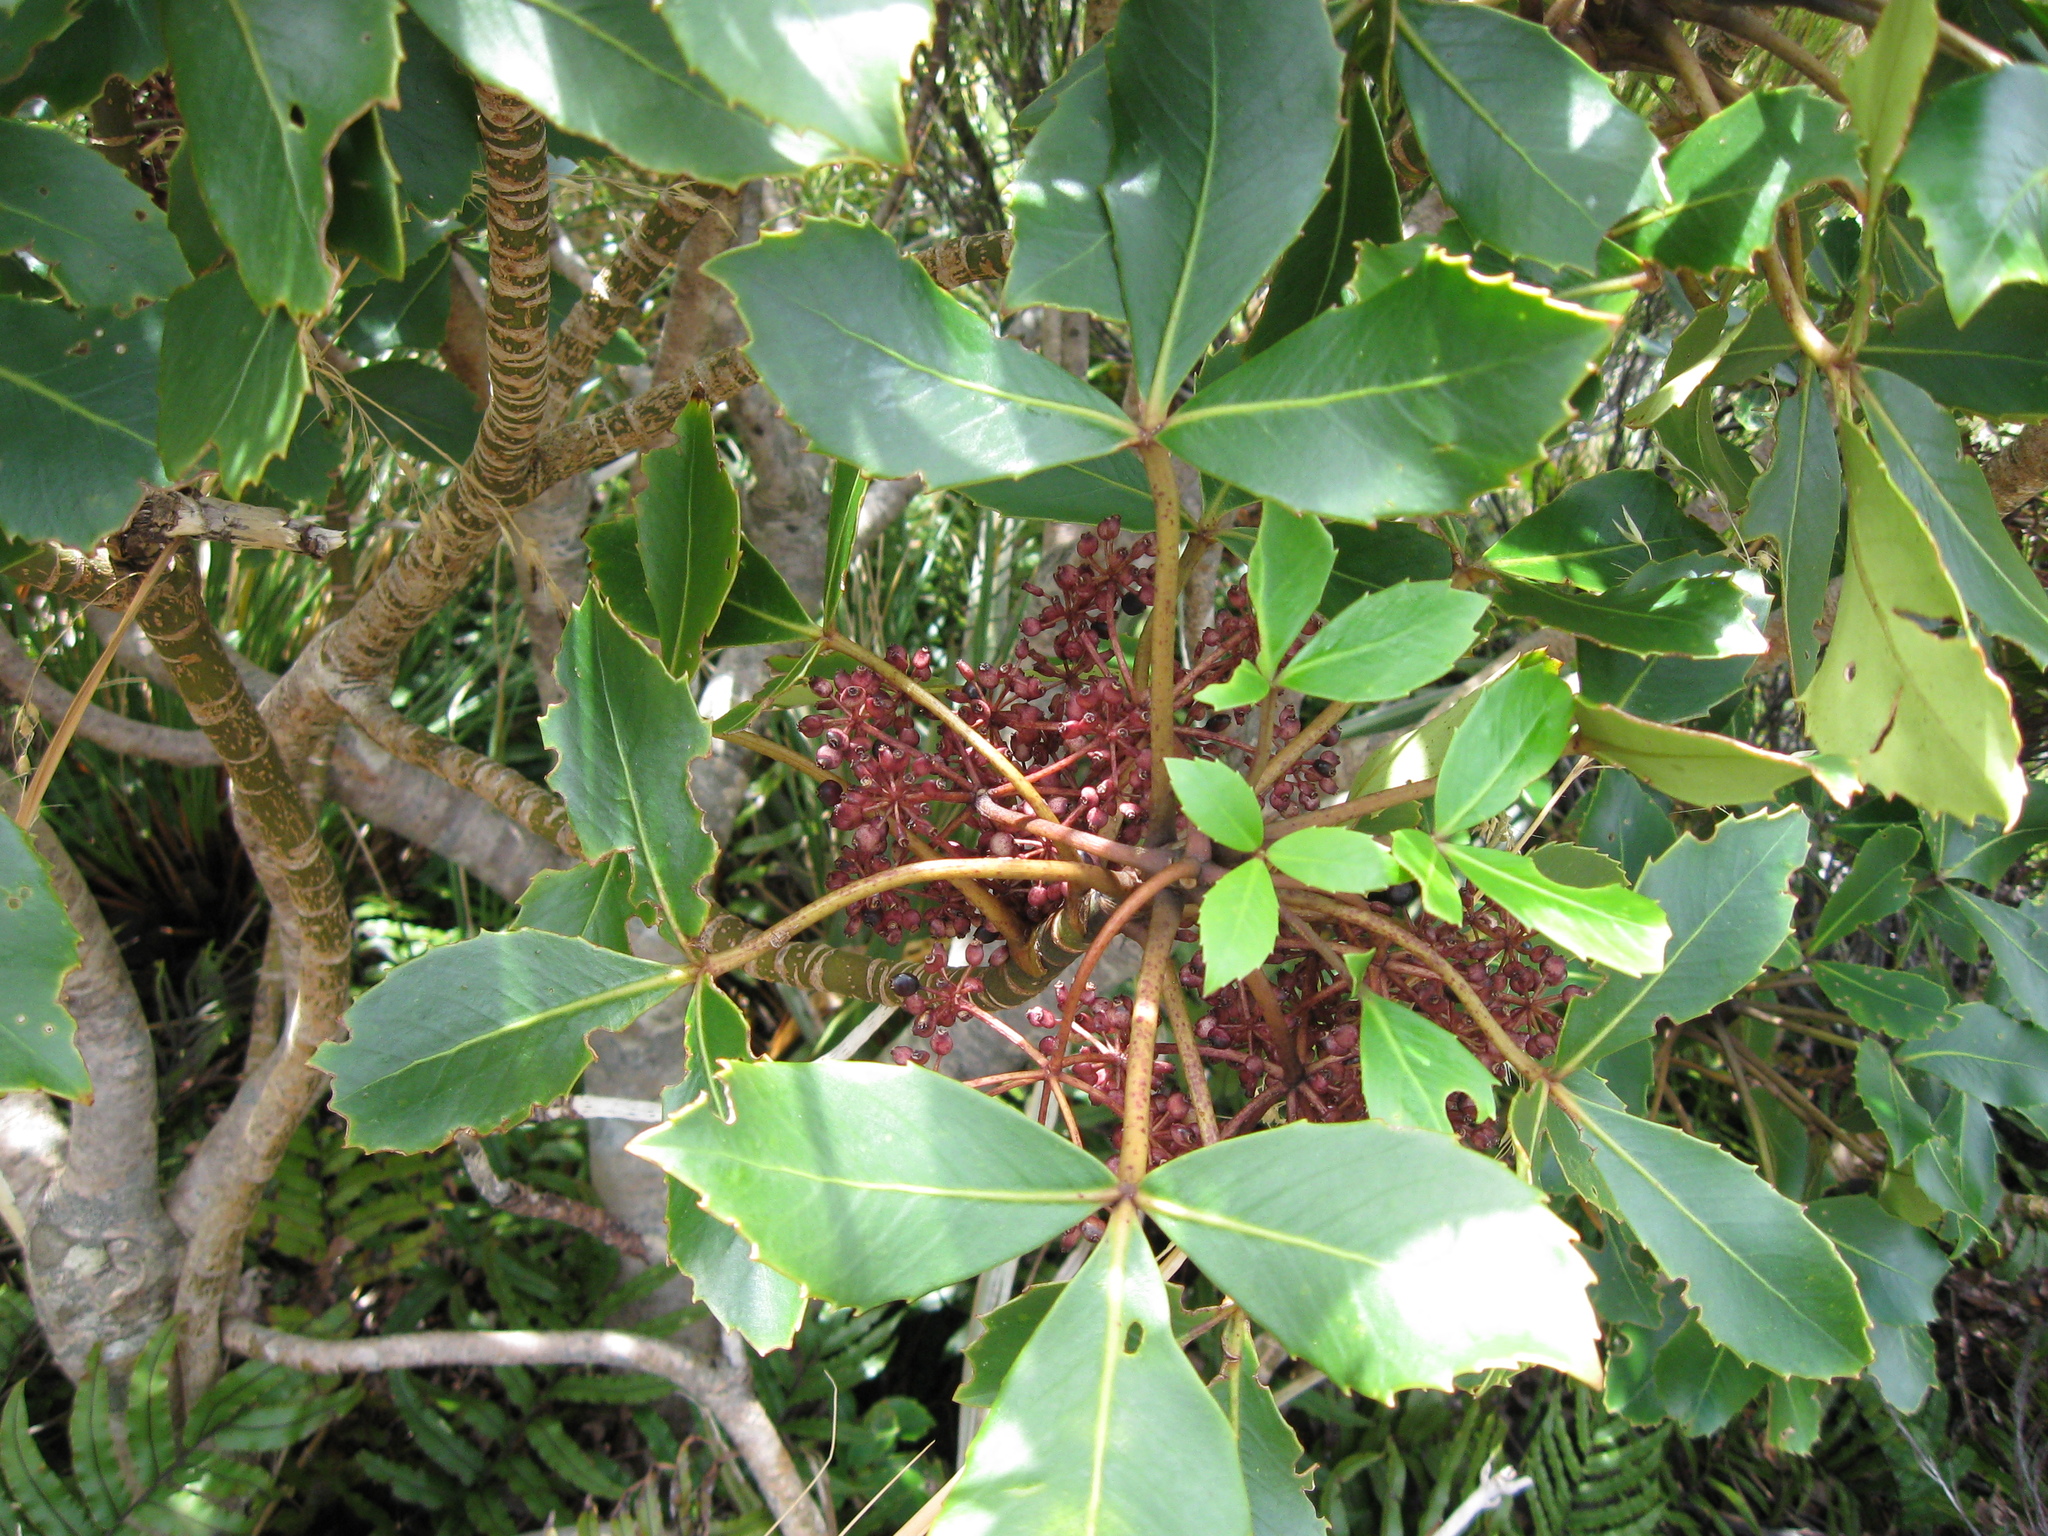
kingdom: Plantae
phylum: Tracheophyta
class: Magnoliopsida
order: Apiales
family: Araliaceae
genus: Neopanax
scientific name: Neopanax colensoi
